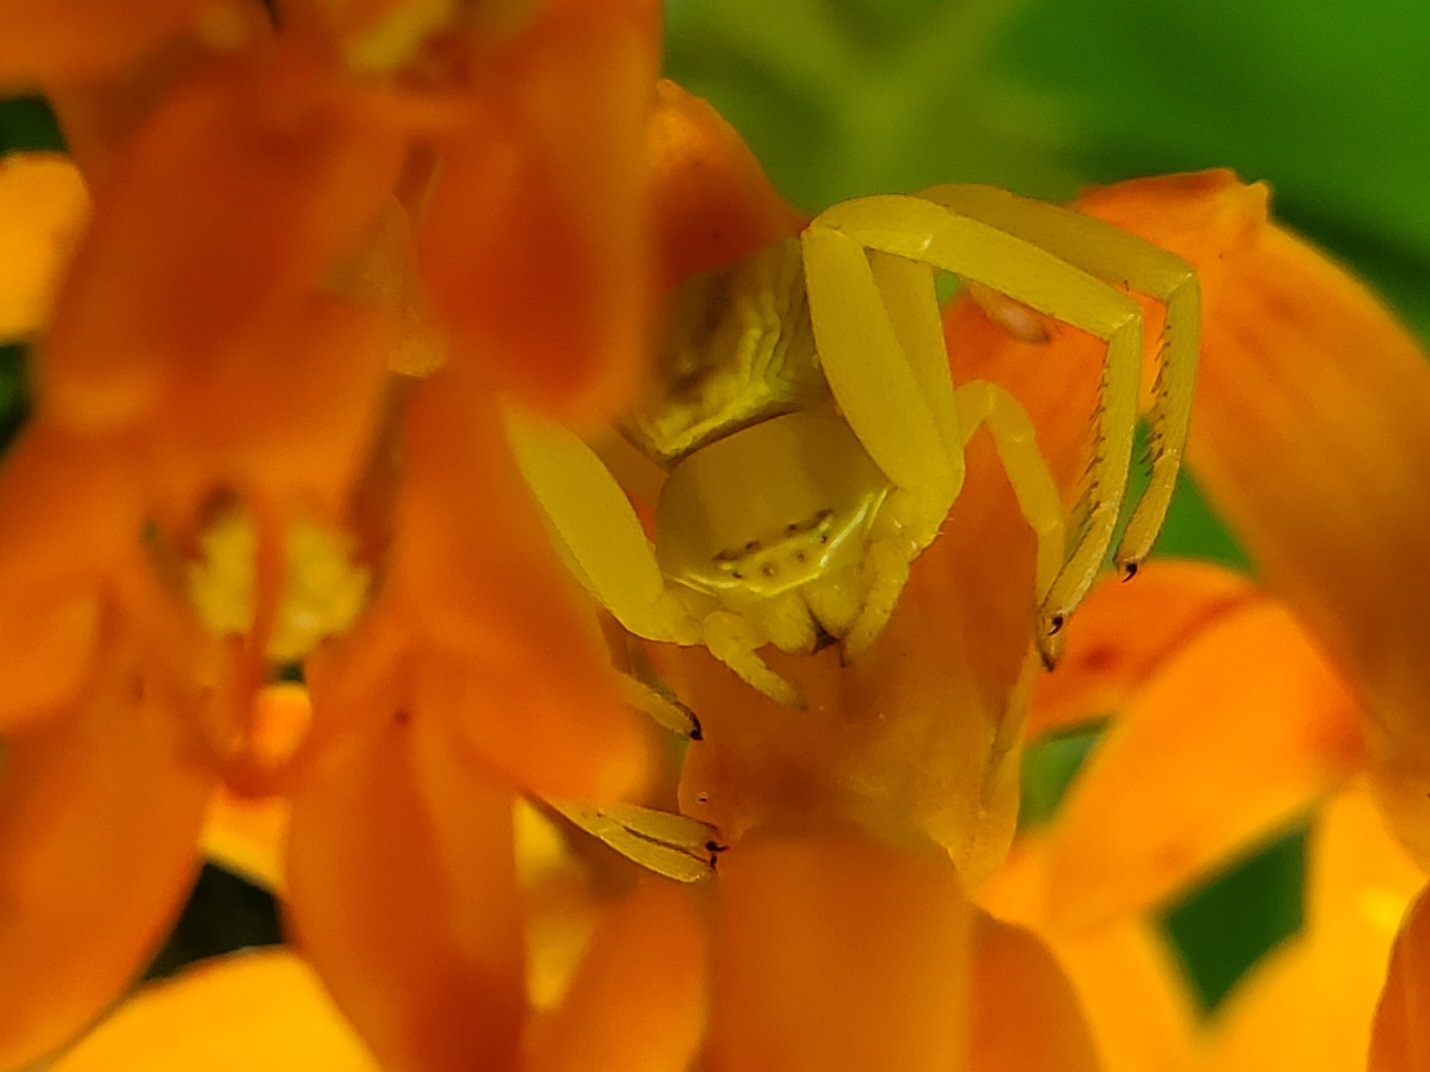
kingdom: Animalia
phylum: Arthropoda
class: Arachnida
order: Araneae
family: Thomisidae
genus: Misumenoides
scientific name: Misumenoides formosipes
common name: White-banded crab spider
